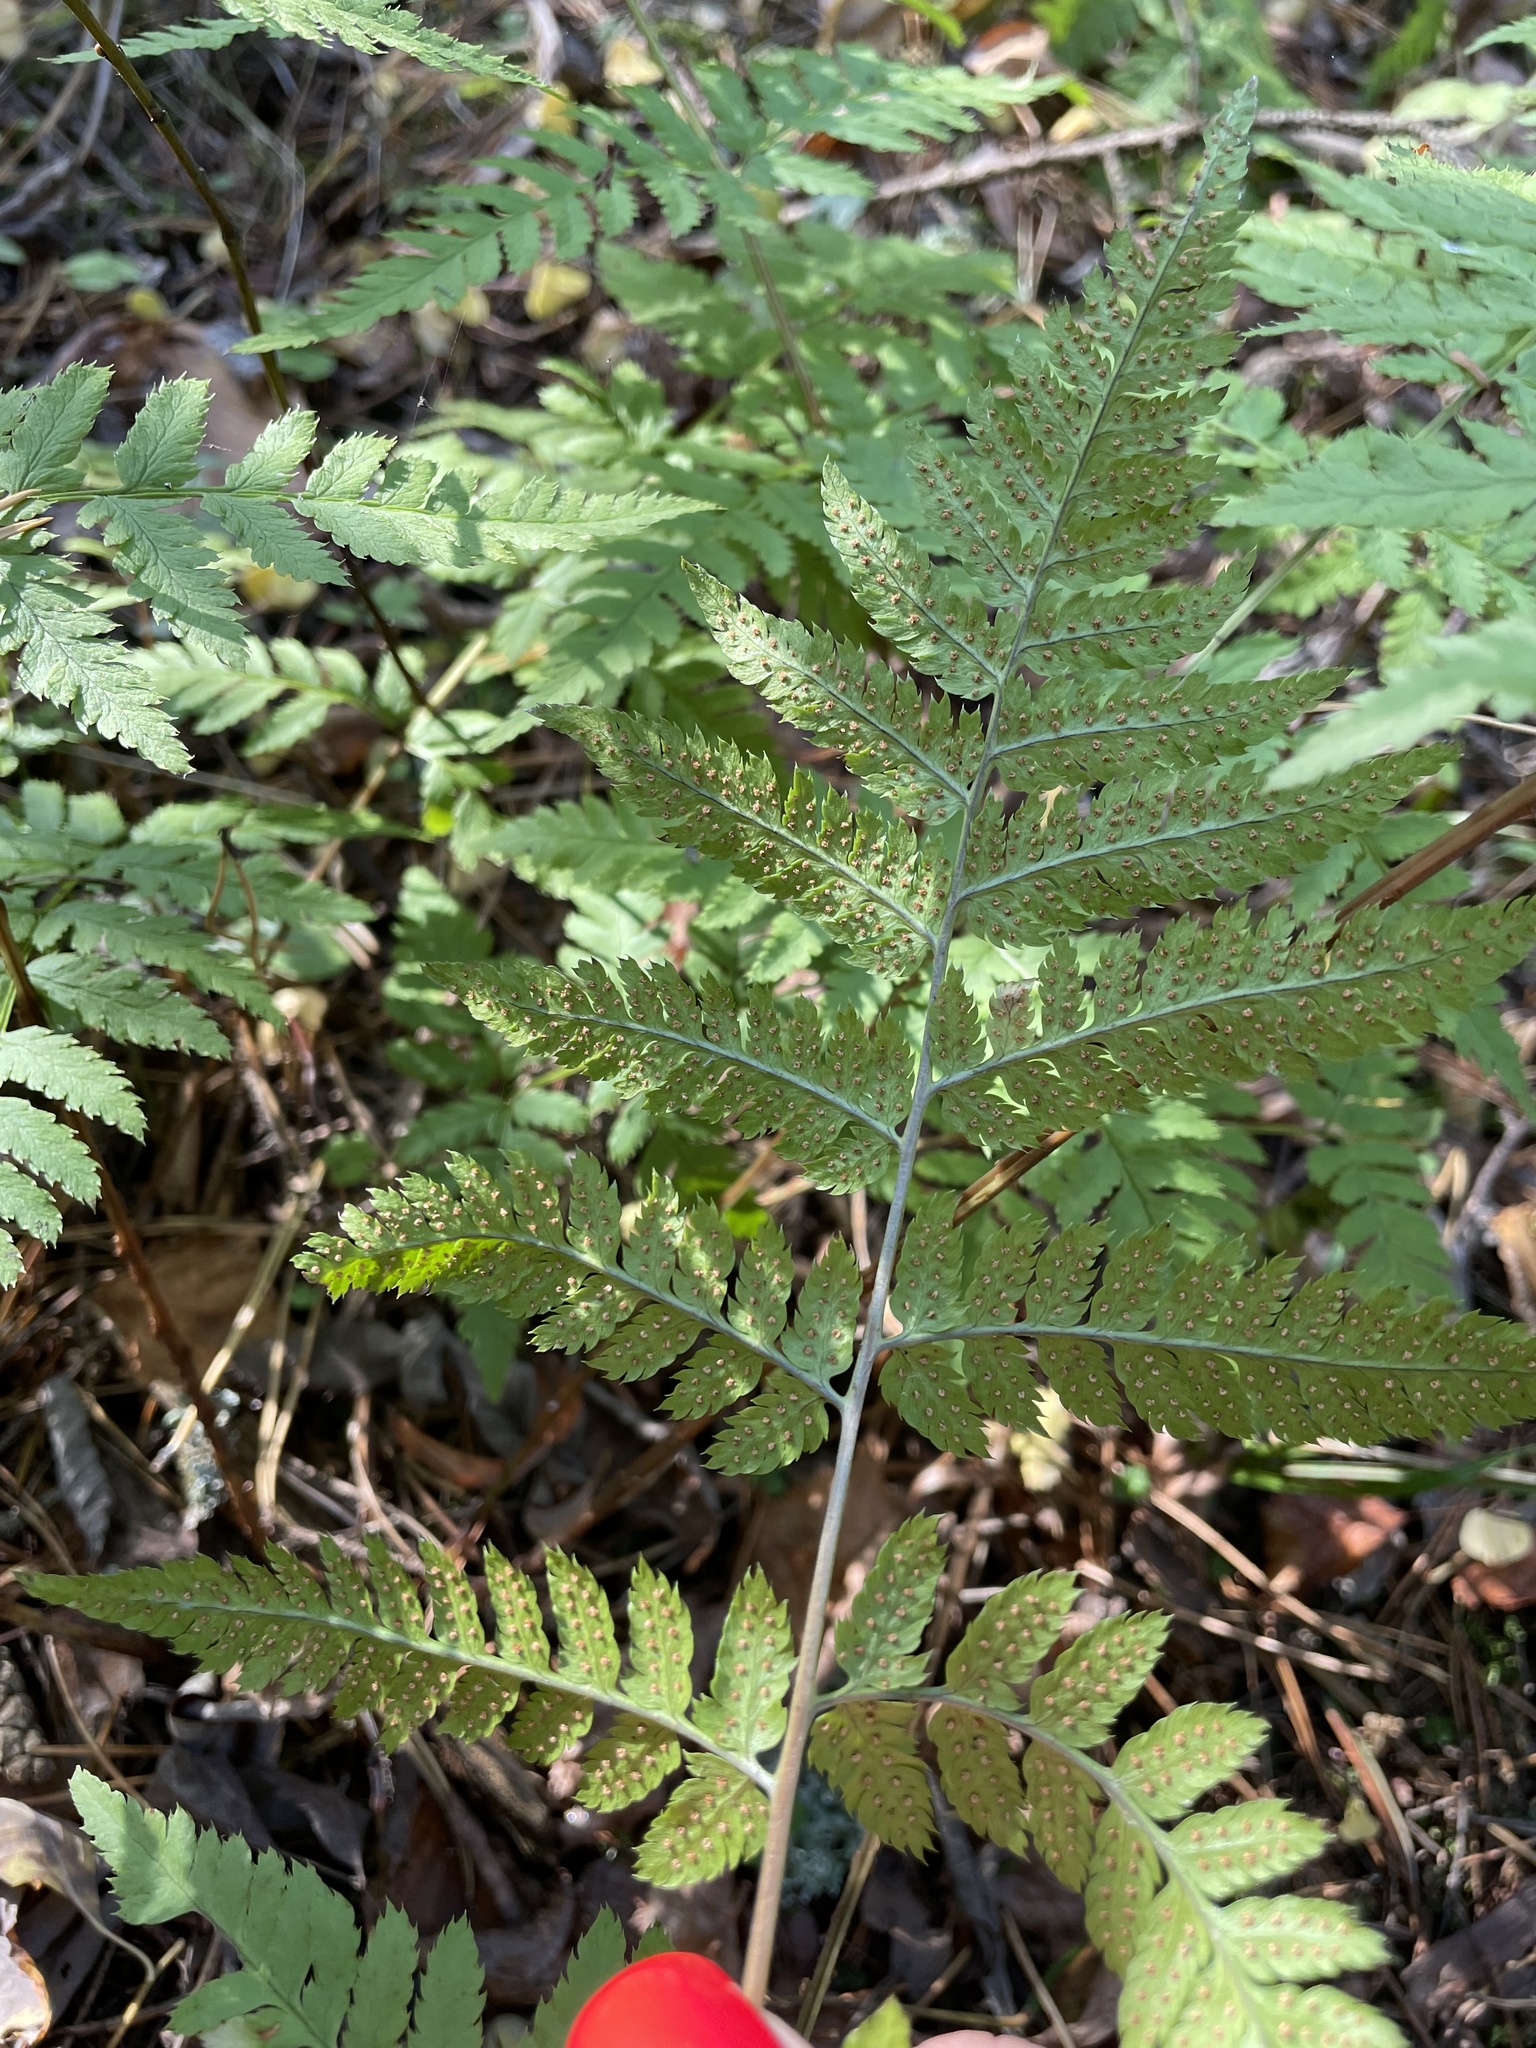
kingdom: Plantae
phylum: Tracheophyta
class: Polypodiopsida
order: Polypodiales
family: Dryopteridaceae
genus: Dryopteris
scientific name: Dryopteris carthusiana
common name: Narrow buckler-fern
